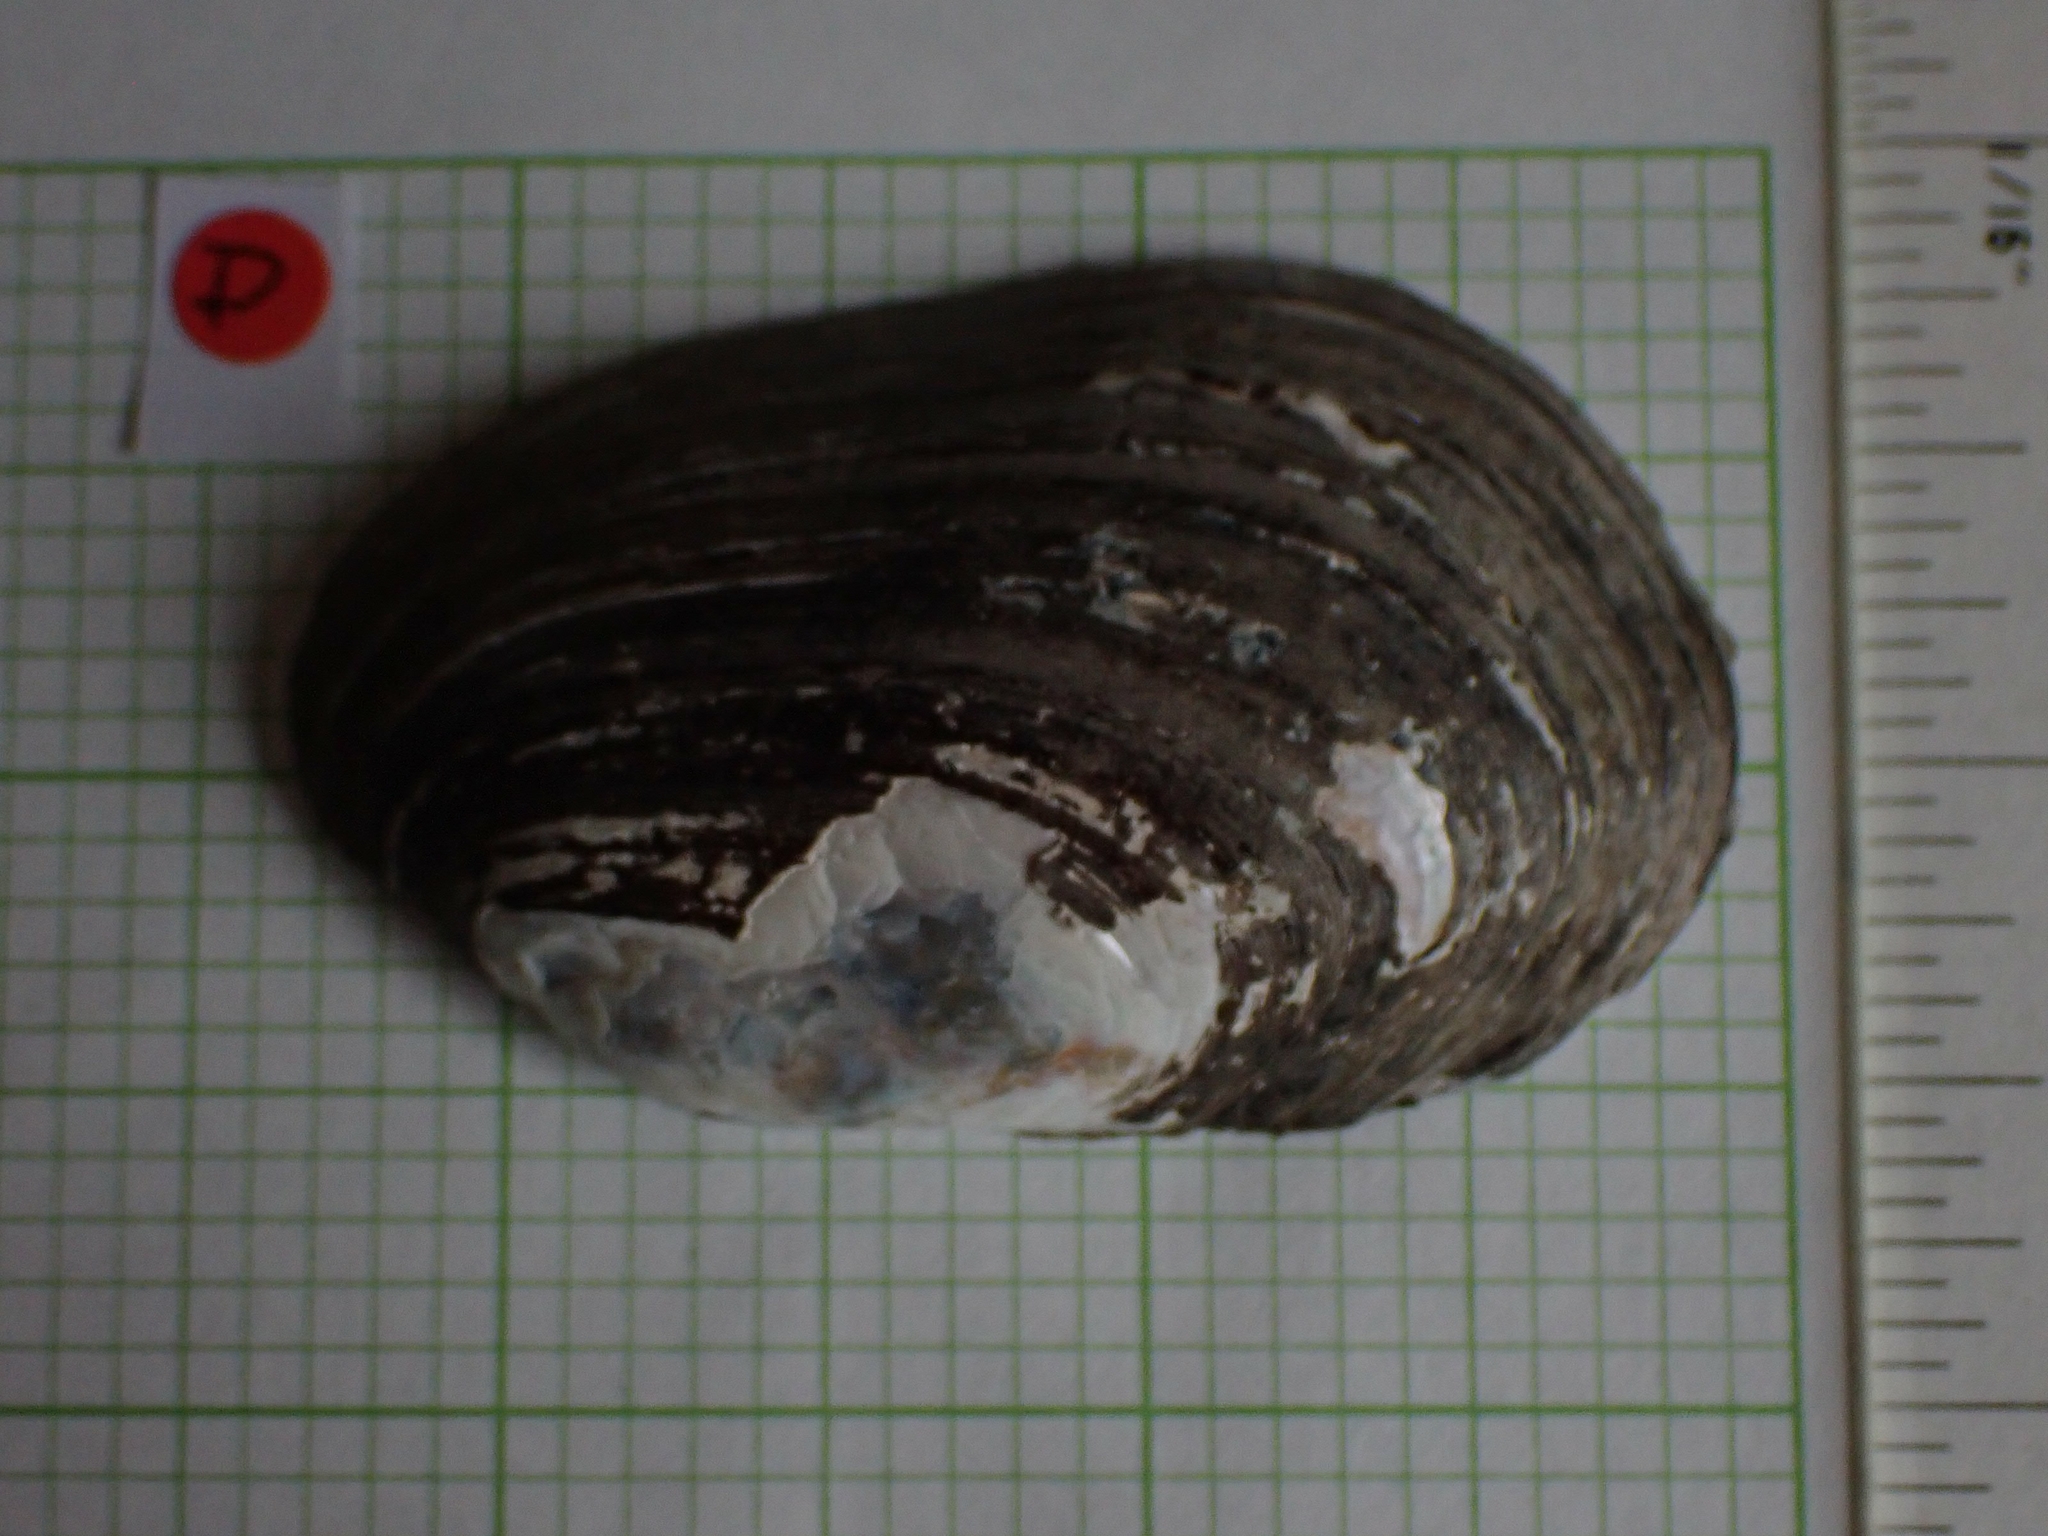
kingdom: Animalia
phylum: Mollusca
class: Bivalvia
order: Unionida
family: Unionidae
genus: Lampsilis
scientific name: Lampsilis siliquoidea
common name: Fatmucket
